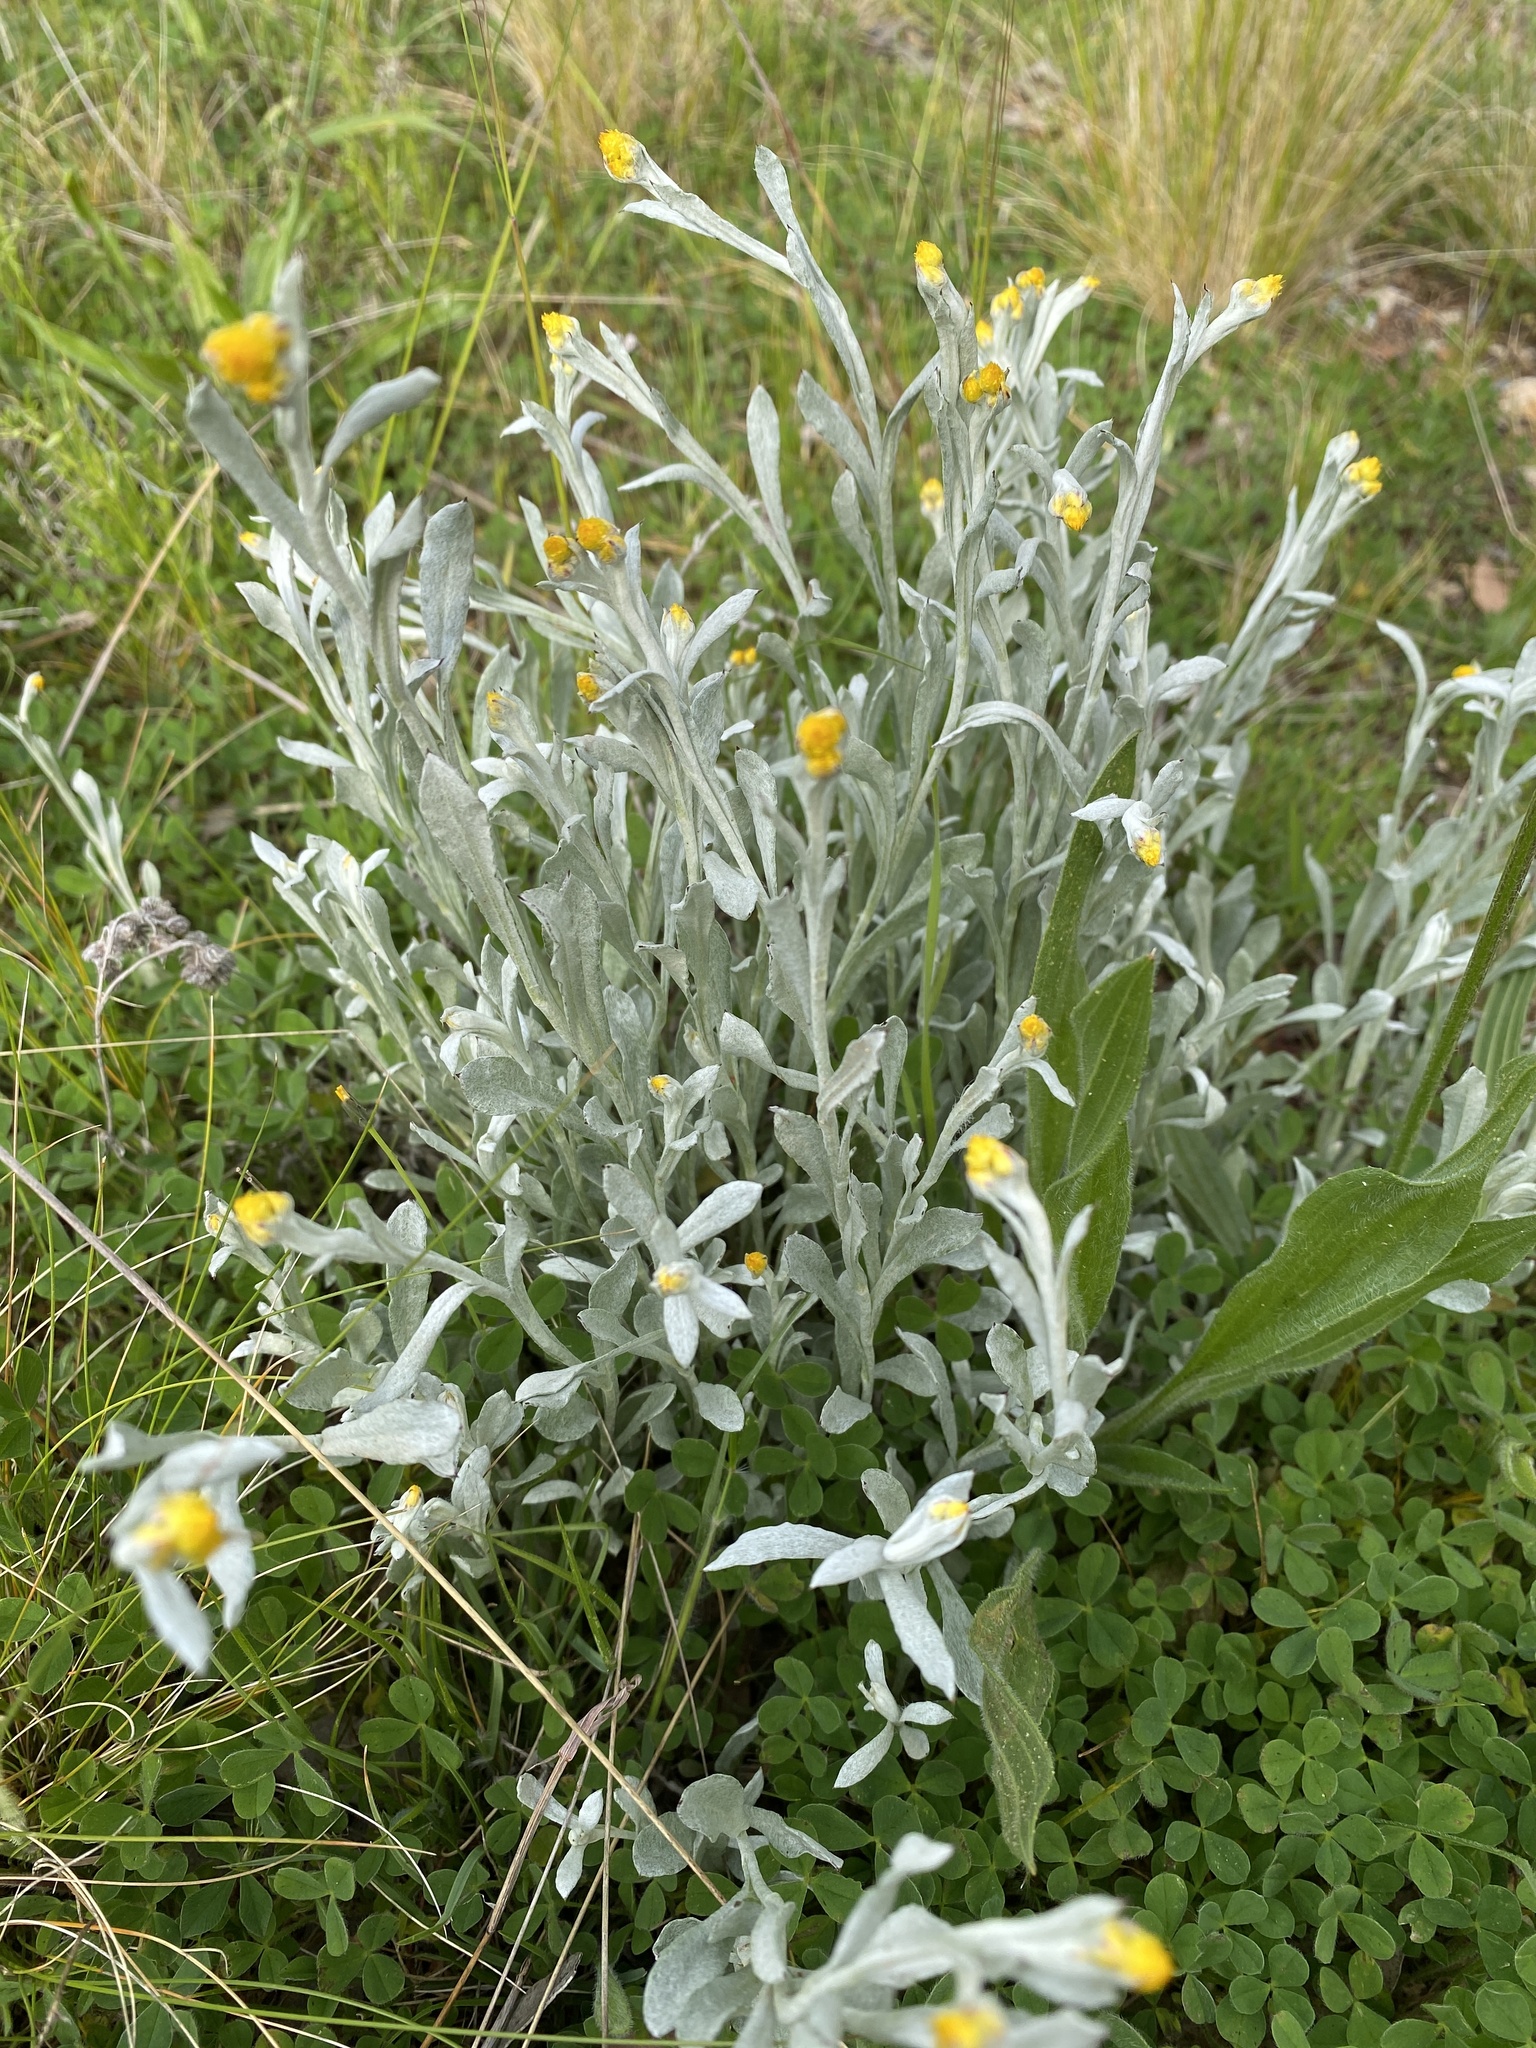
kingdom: Plantae
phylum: Tracheophyta
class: Magnoliopsida
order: Asterales
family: Asteraceae
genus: Chrysocephalum
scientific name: Chrysocephalum apiculatum
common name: Common everlasting
